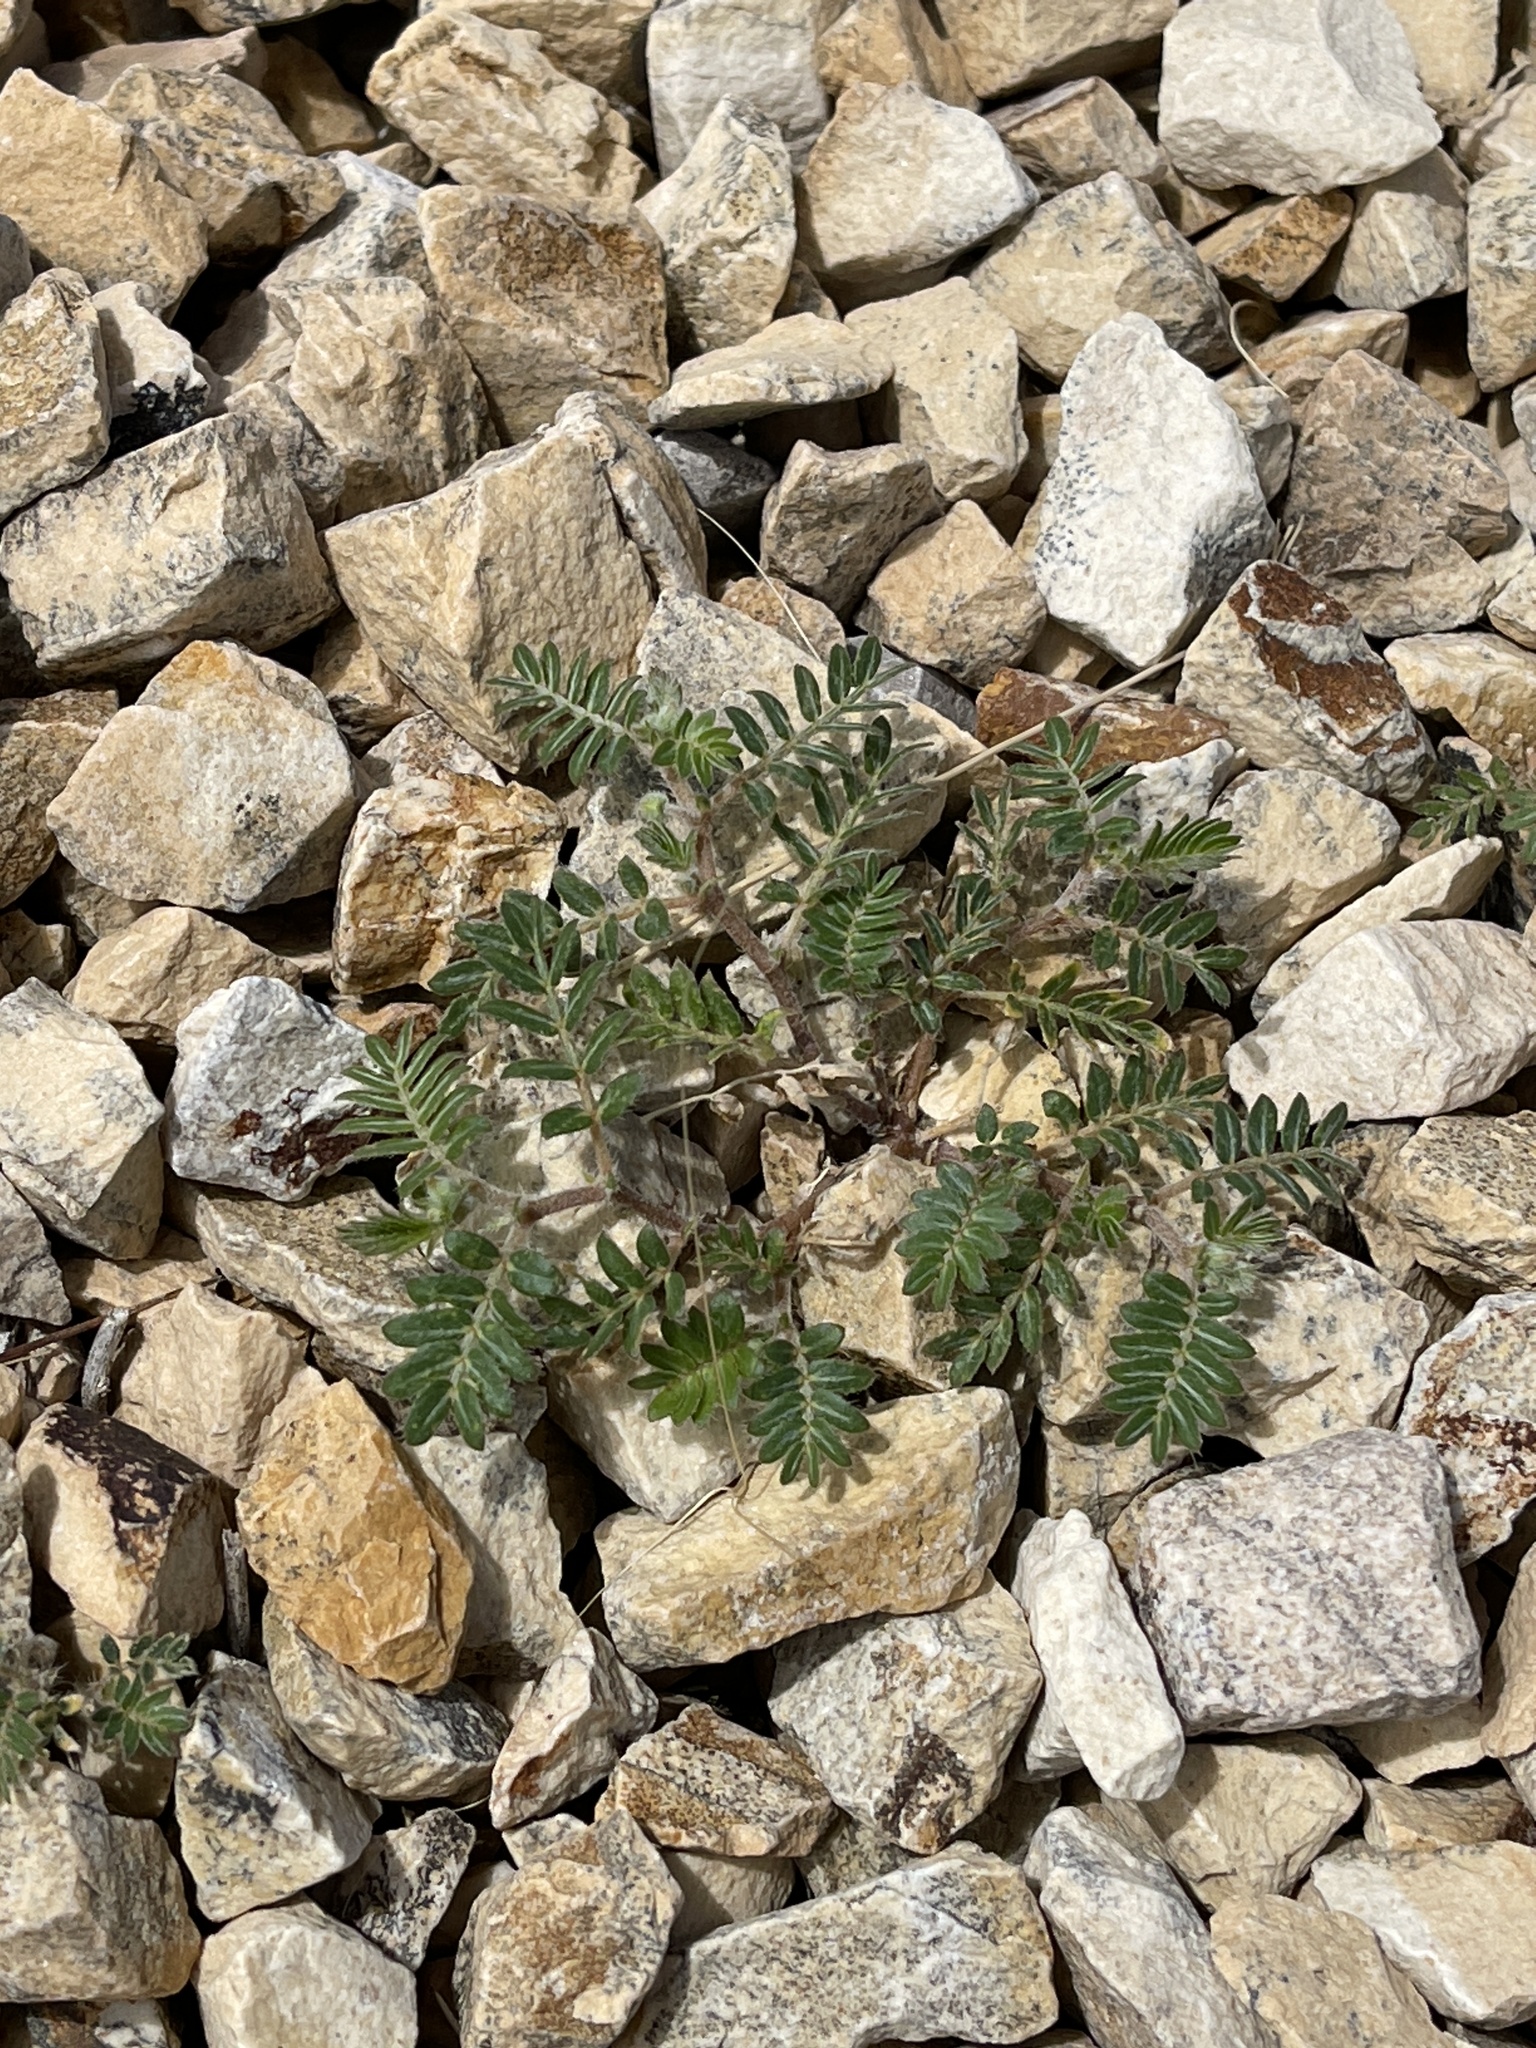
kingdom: Plantae
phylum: Tracheophyta
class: Magnoliopsida
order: Zygophyllales
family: Zygophyllaceae
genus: Tribulus
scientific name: Tribulus terrestris
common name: Puncturevine
